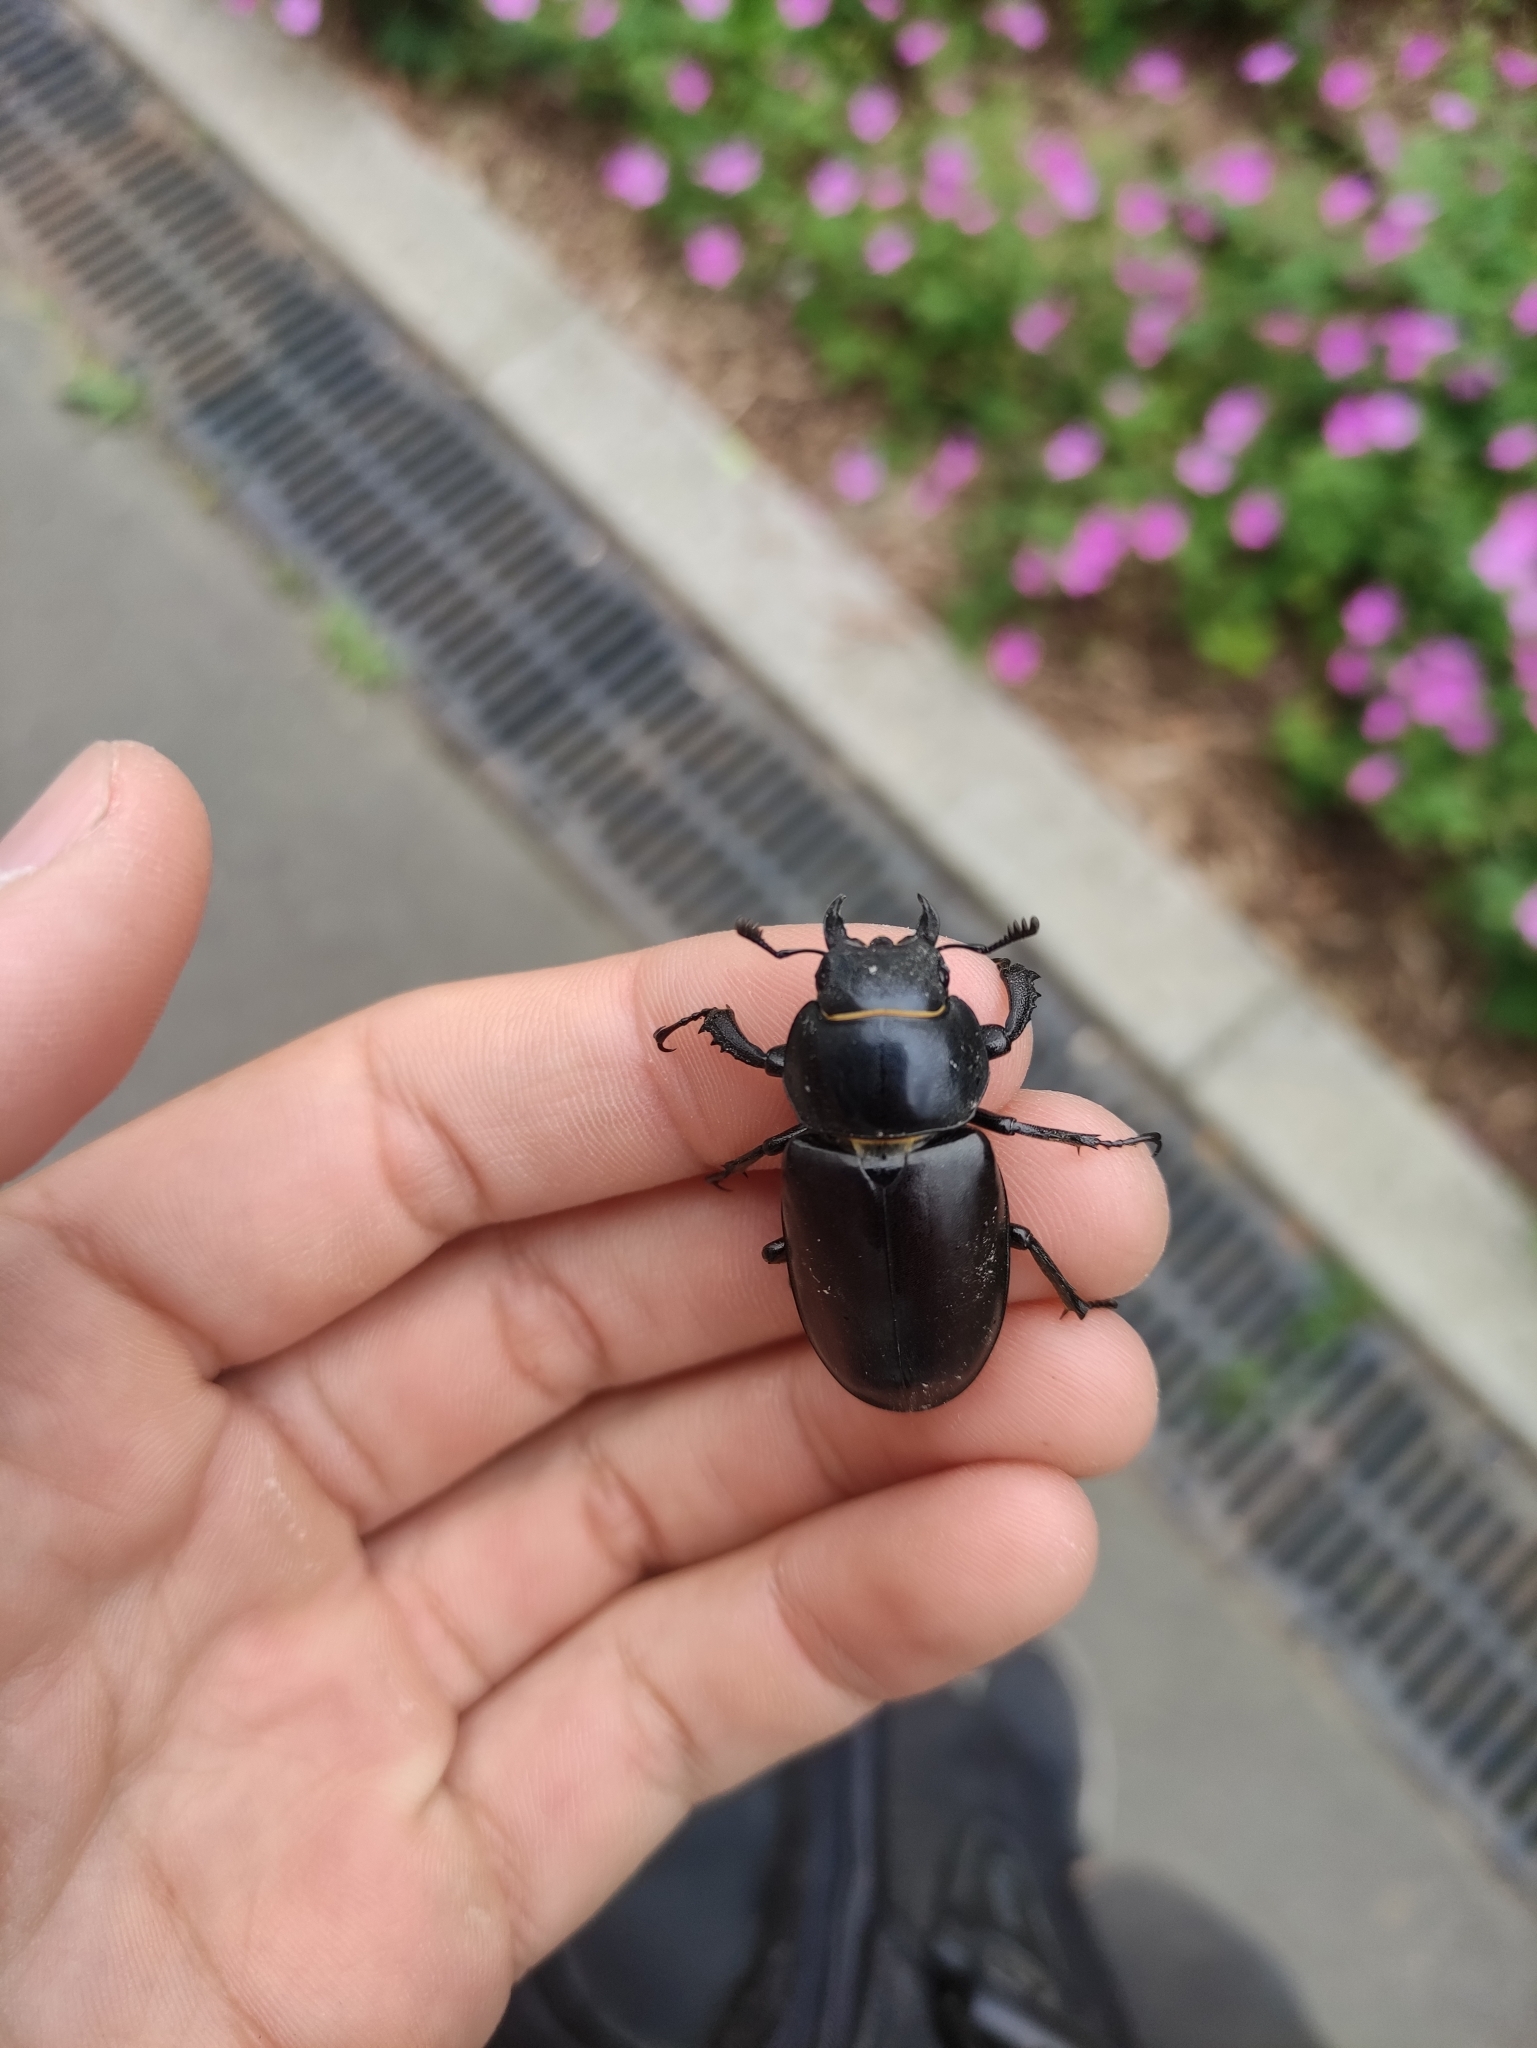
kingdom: Animalia
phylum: Arthropoda
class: Insecta
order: Coleoptera
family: Lucanidae
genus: Lucanus
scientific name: Lucanus cervus
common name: Stag beetle
